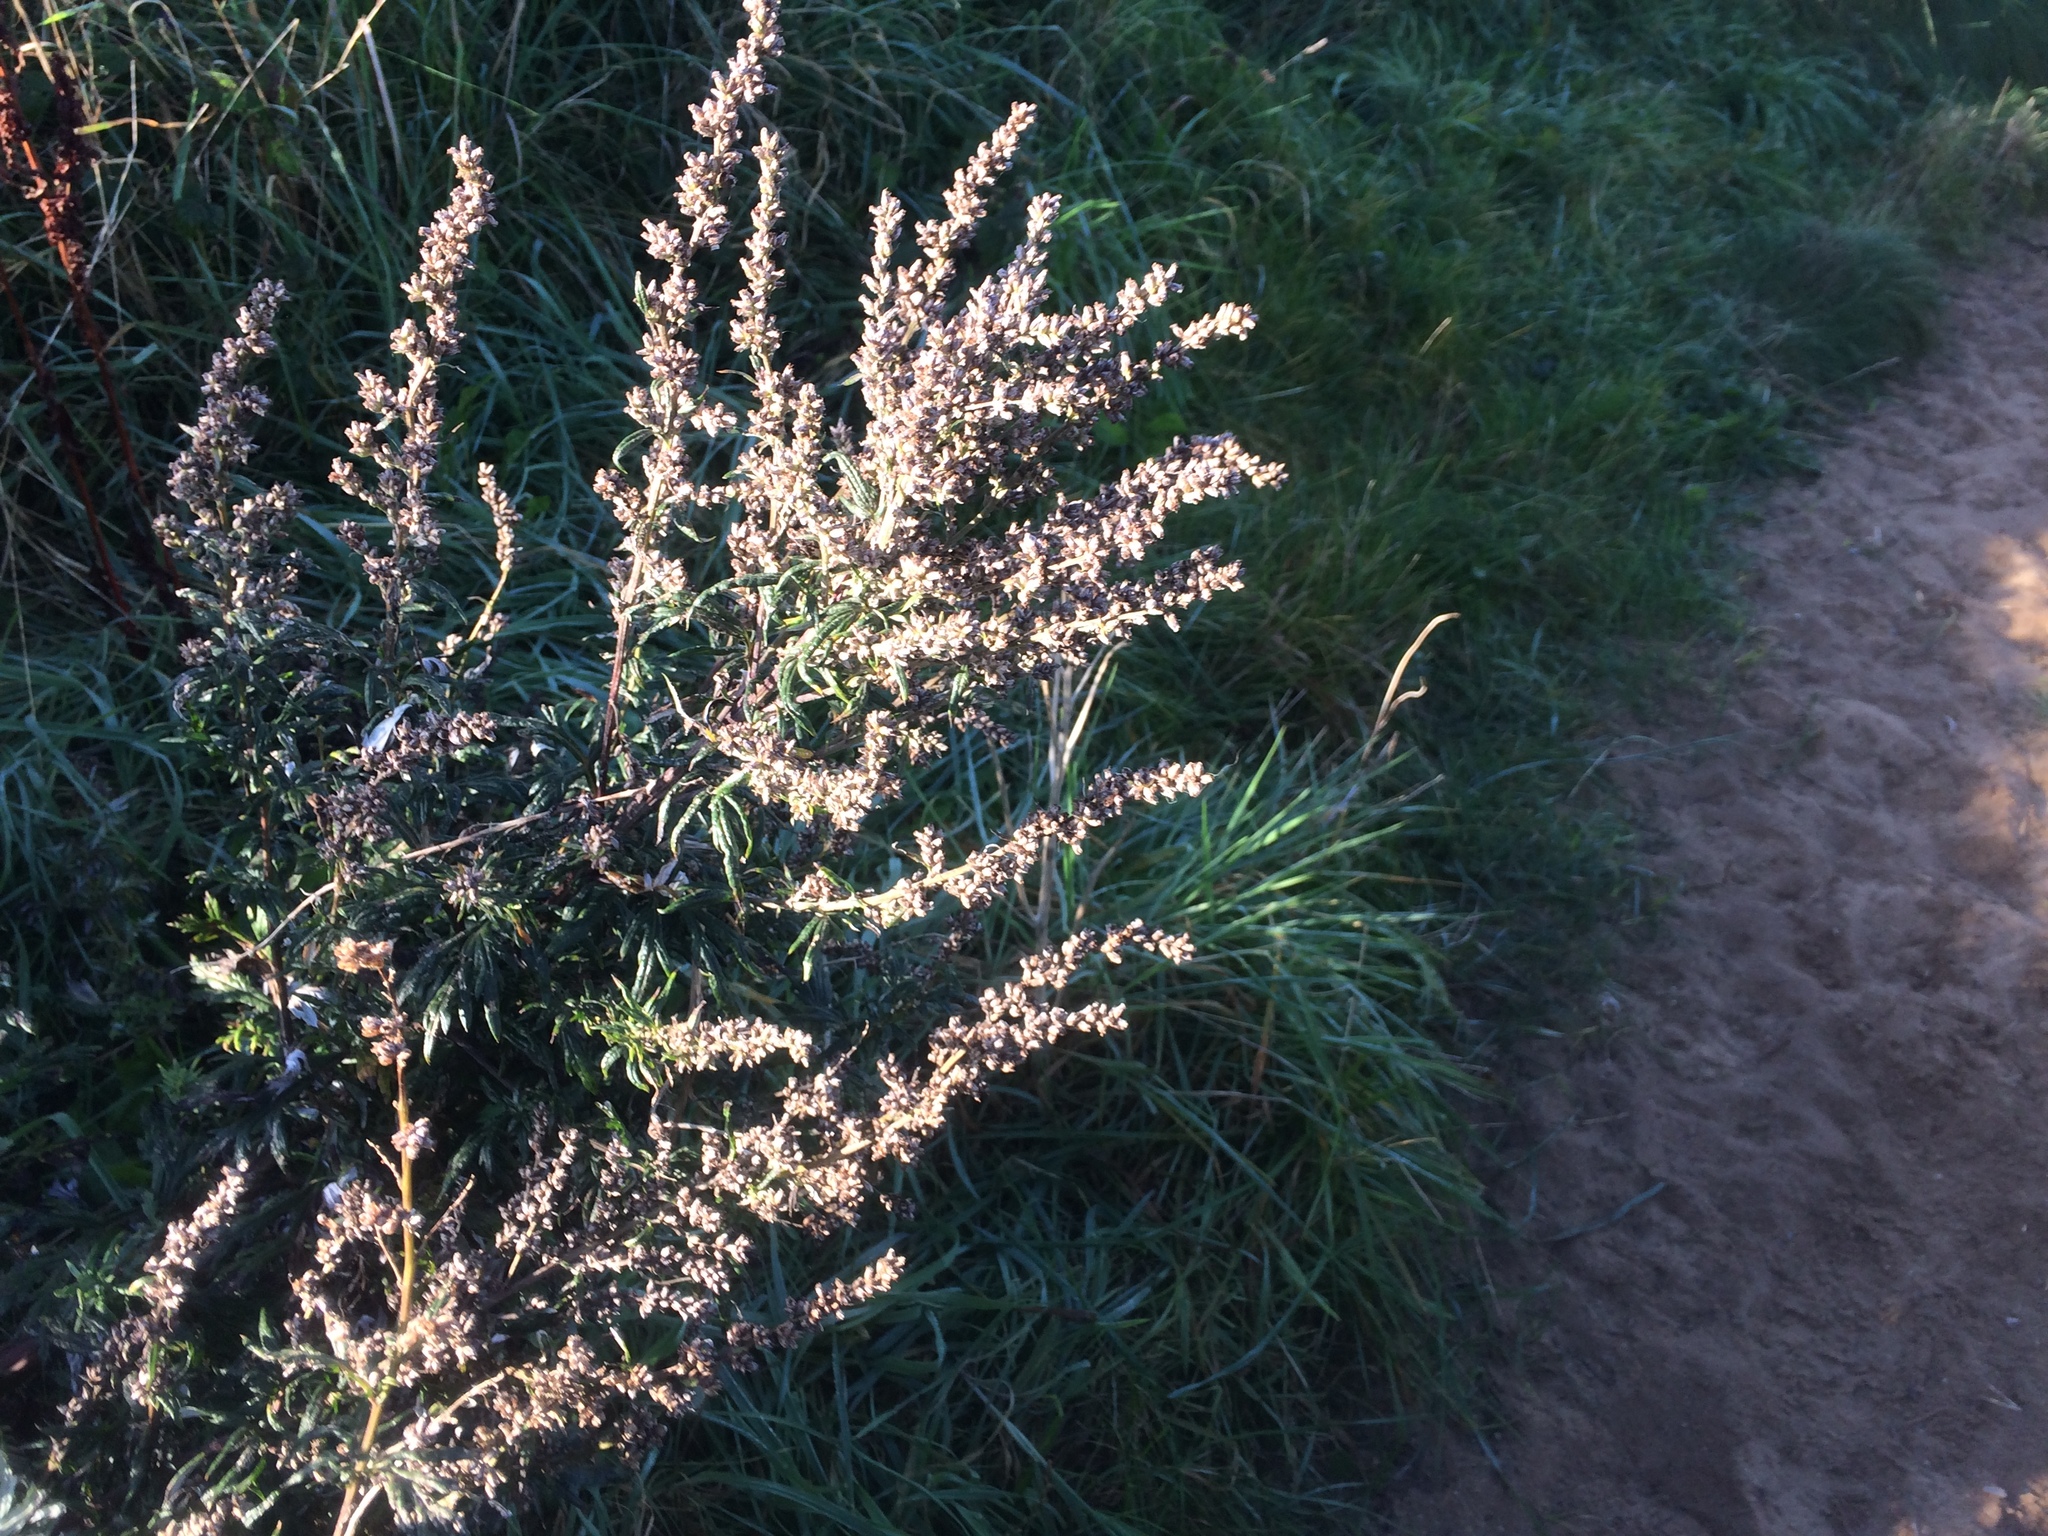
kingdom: Plantae
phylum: Tracheophyta
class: Magnoliopsida
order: Asterales
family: Asteraceae
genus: Artemisia
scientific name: Artemisia vulgaris
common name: Mugwort
